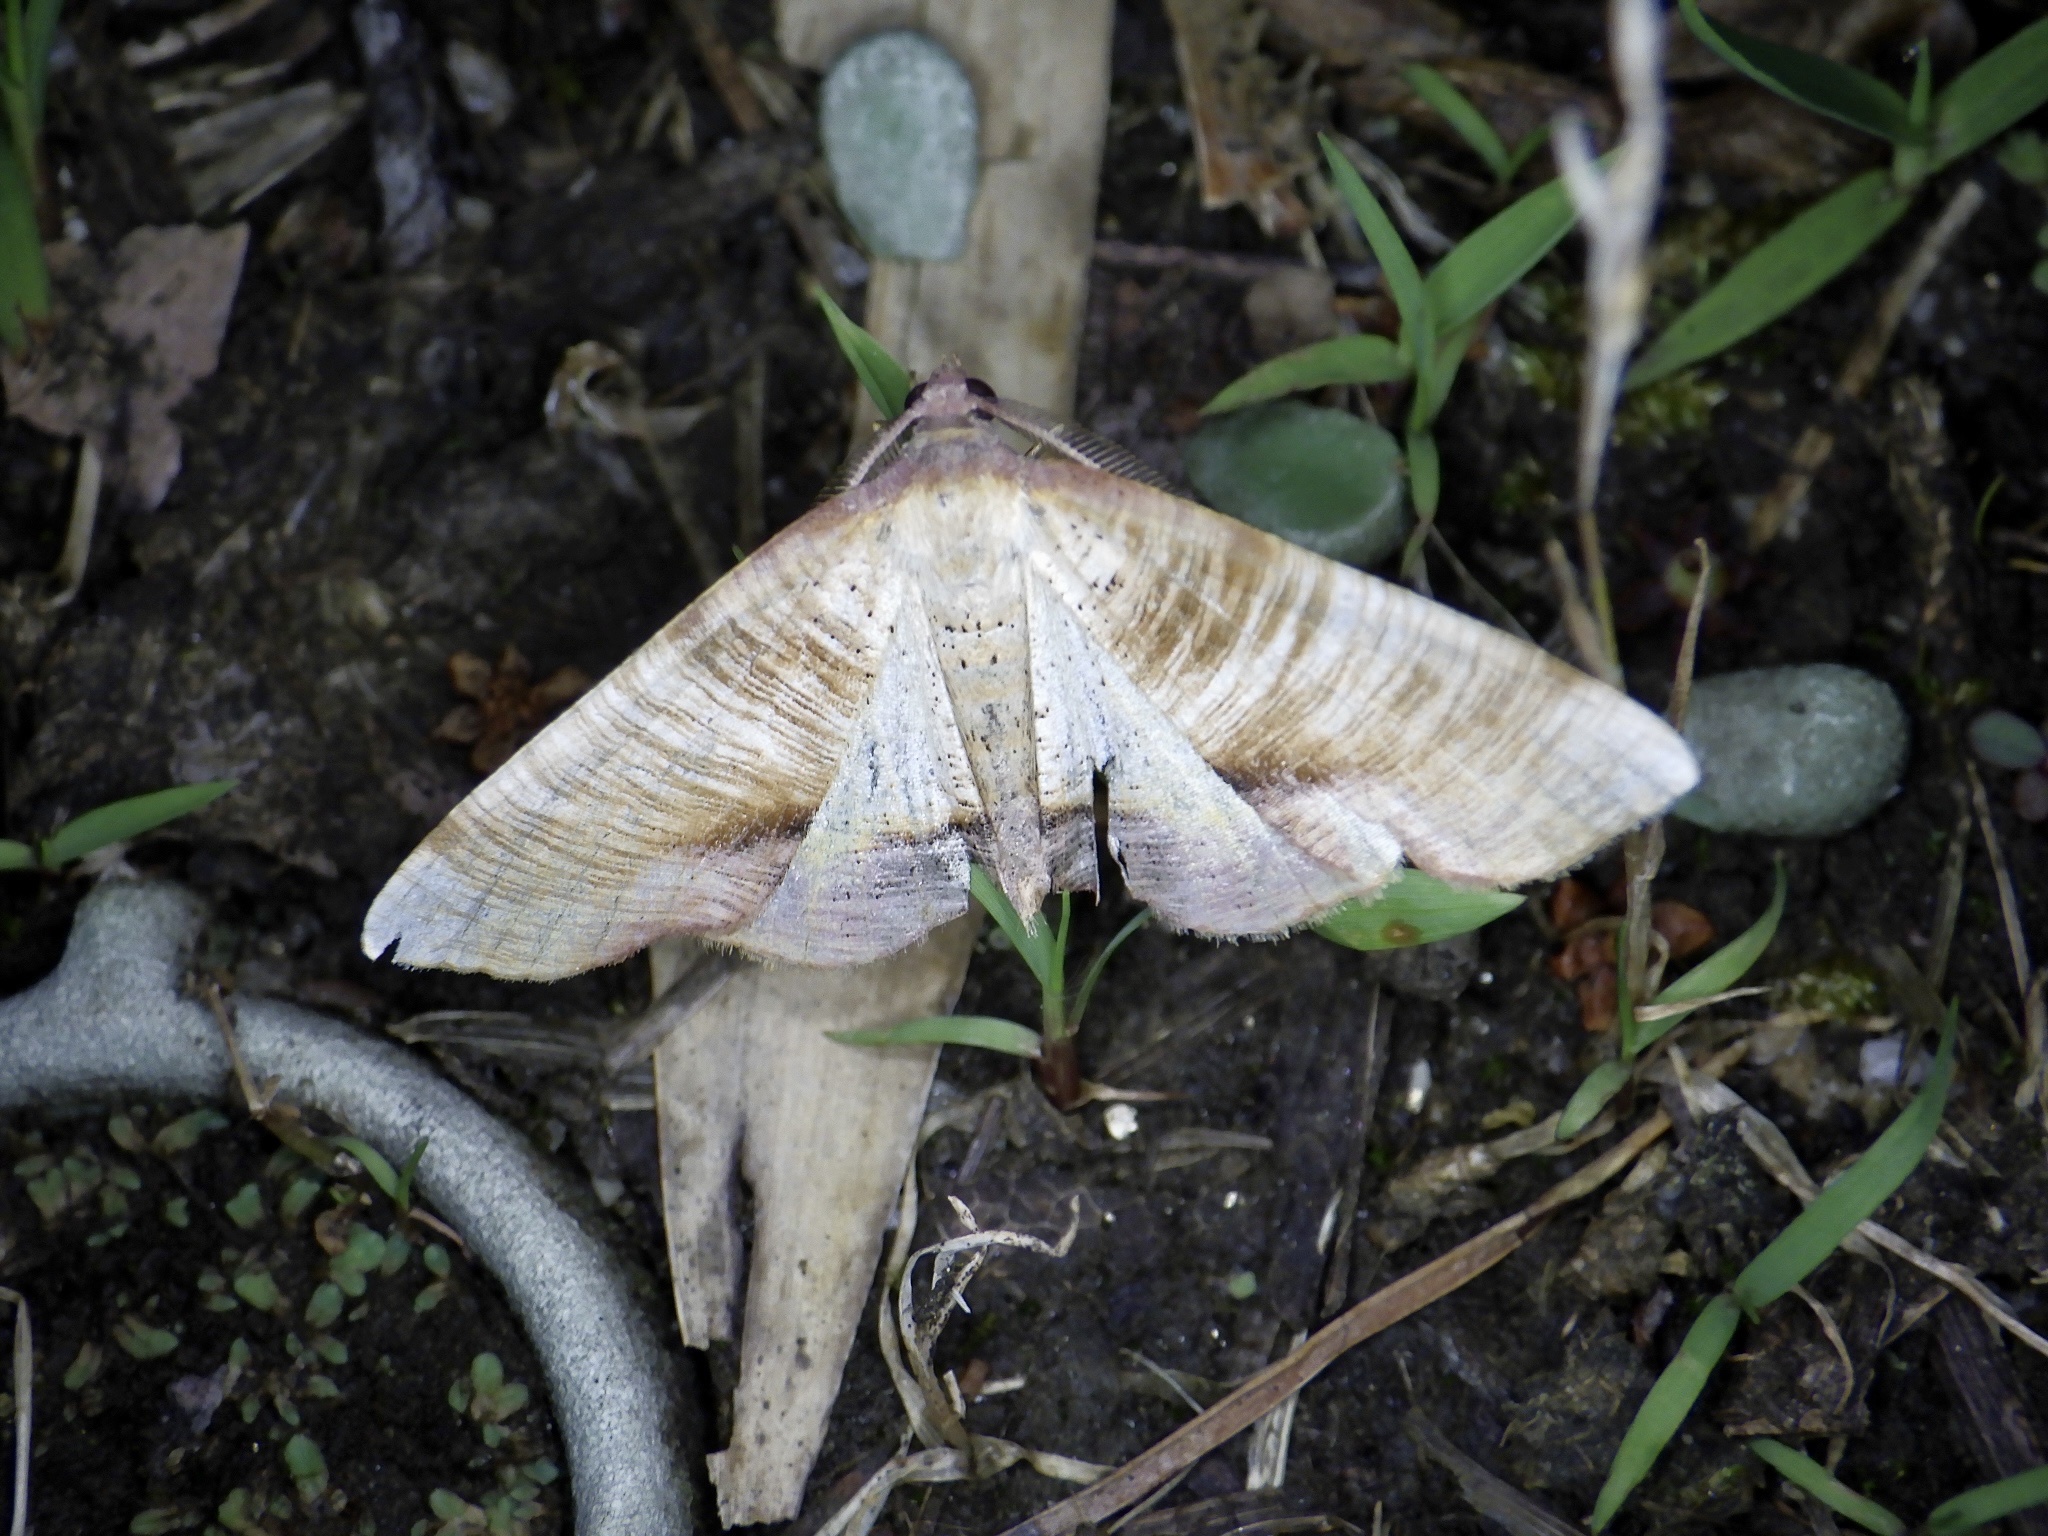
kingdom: Animalia
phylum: Arthropoda
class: Insecta
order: Lepidoptera
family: Geometridae
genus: Plagodis
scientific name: Plagodis dolabraria
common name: Scorched wing
